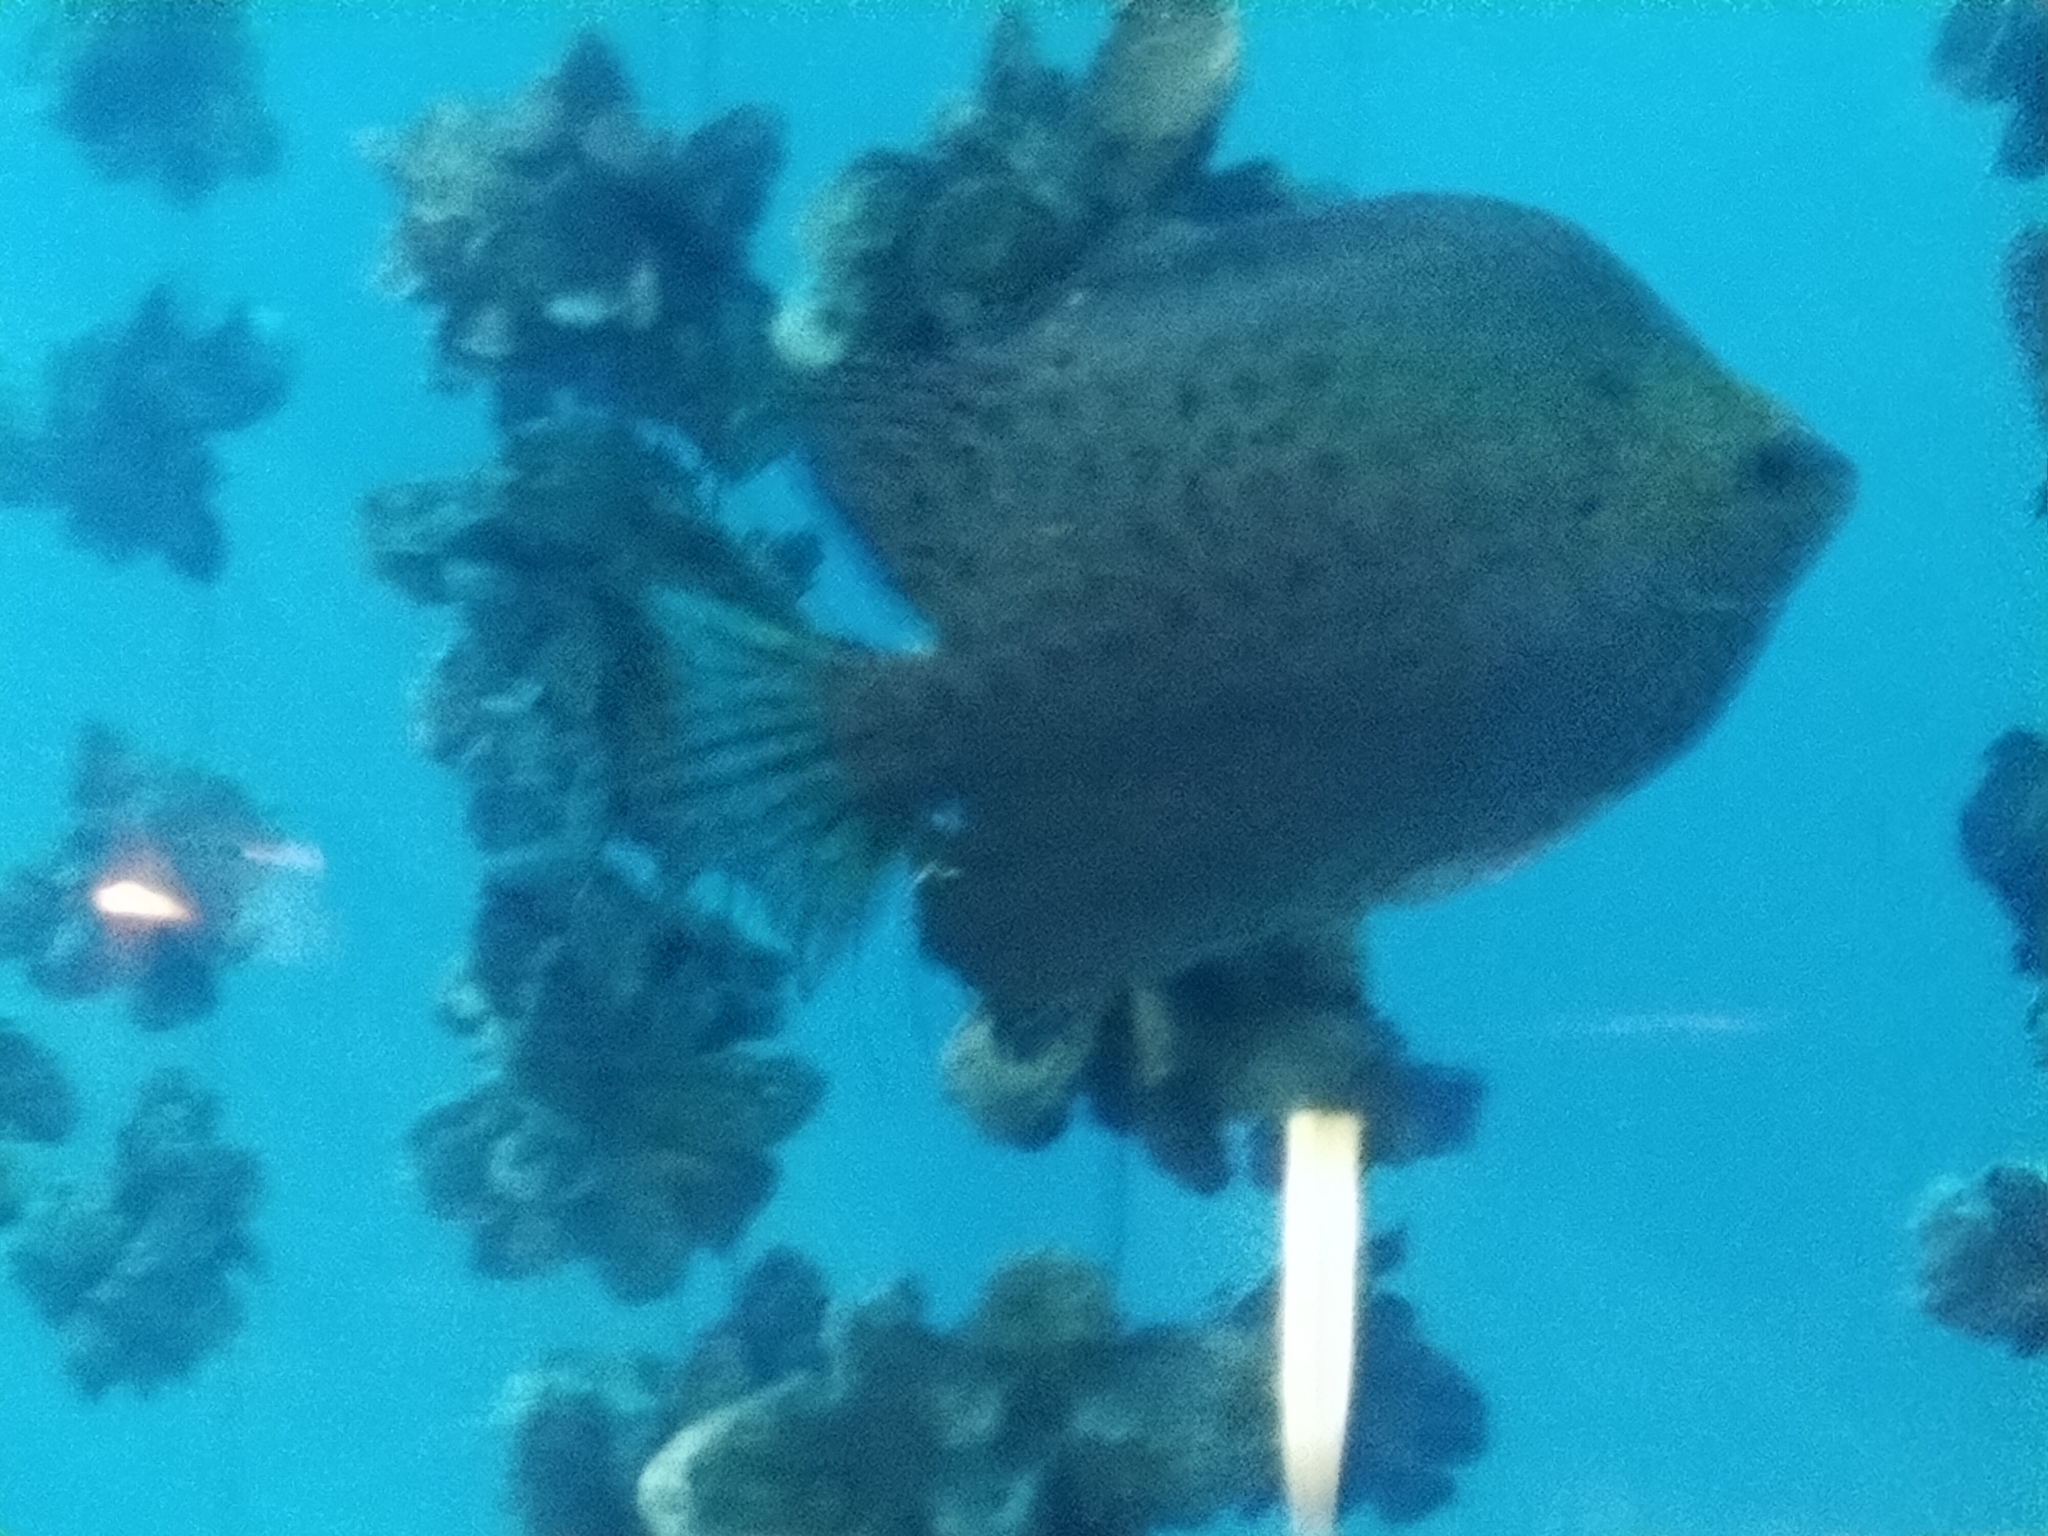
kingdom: Animalia
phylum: Chordata
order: Perciformes
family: Scatophagidae
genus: Scatophagus
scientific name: Scatophagus argus
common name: Spotted scat
